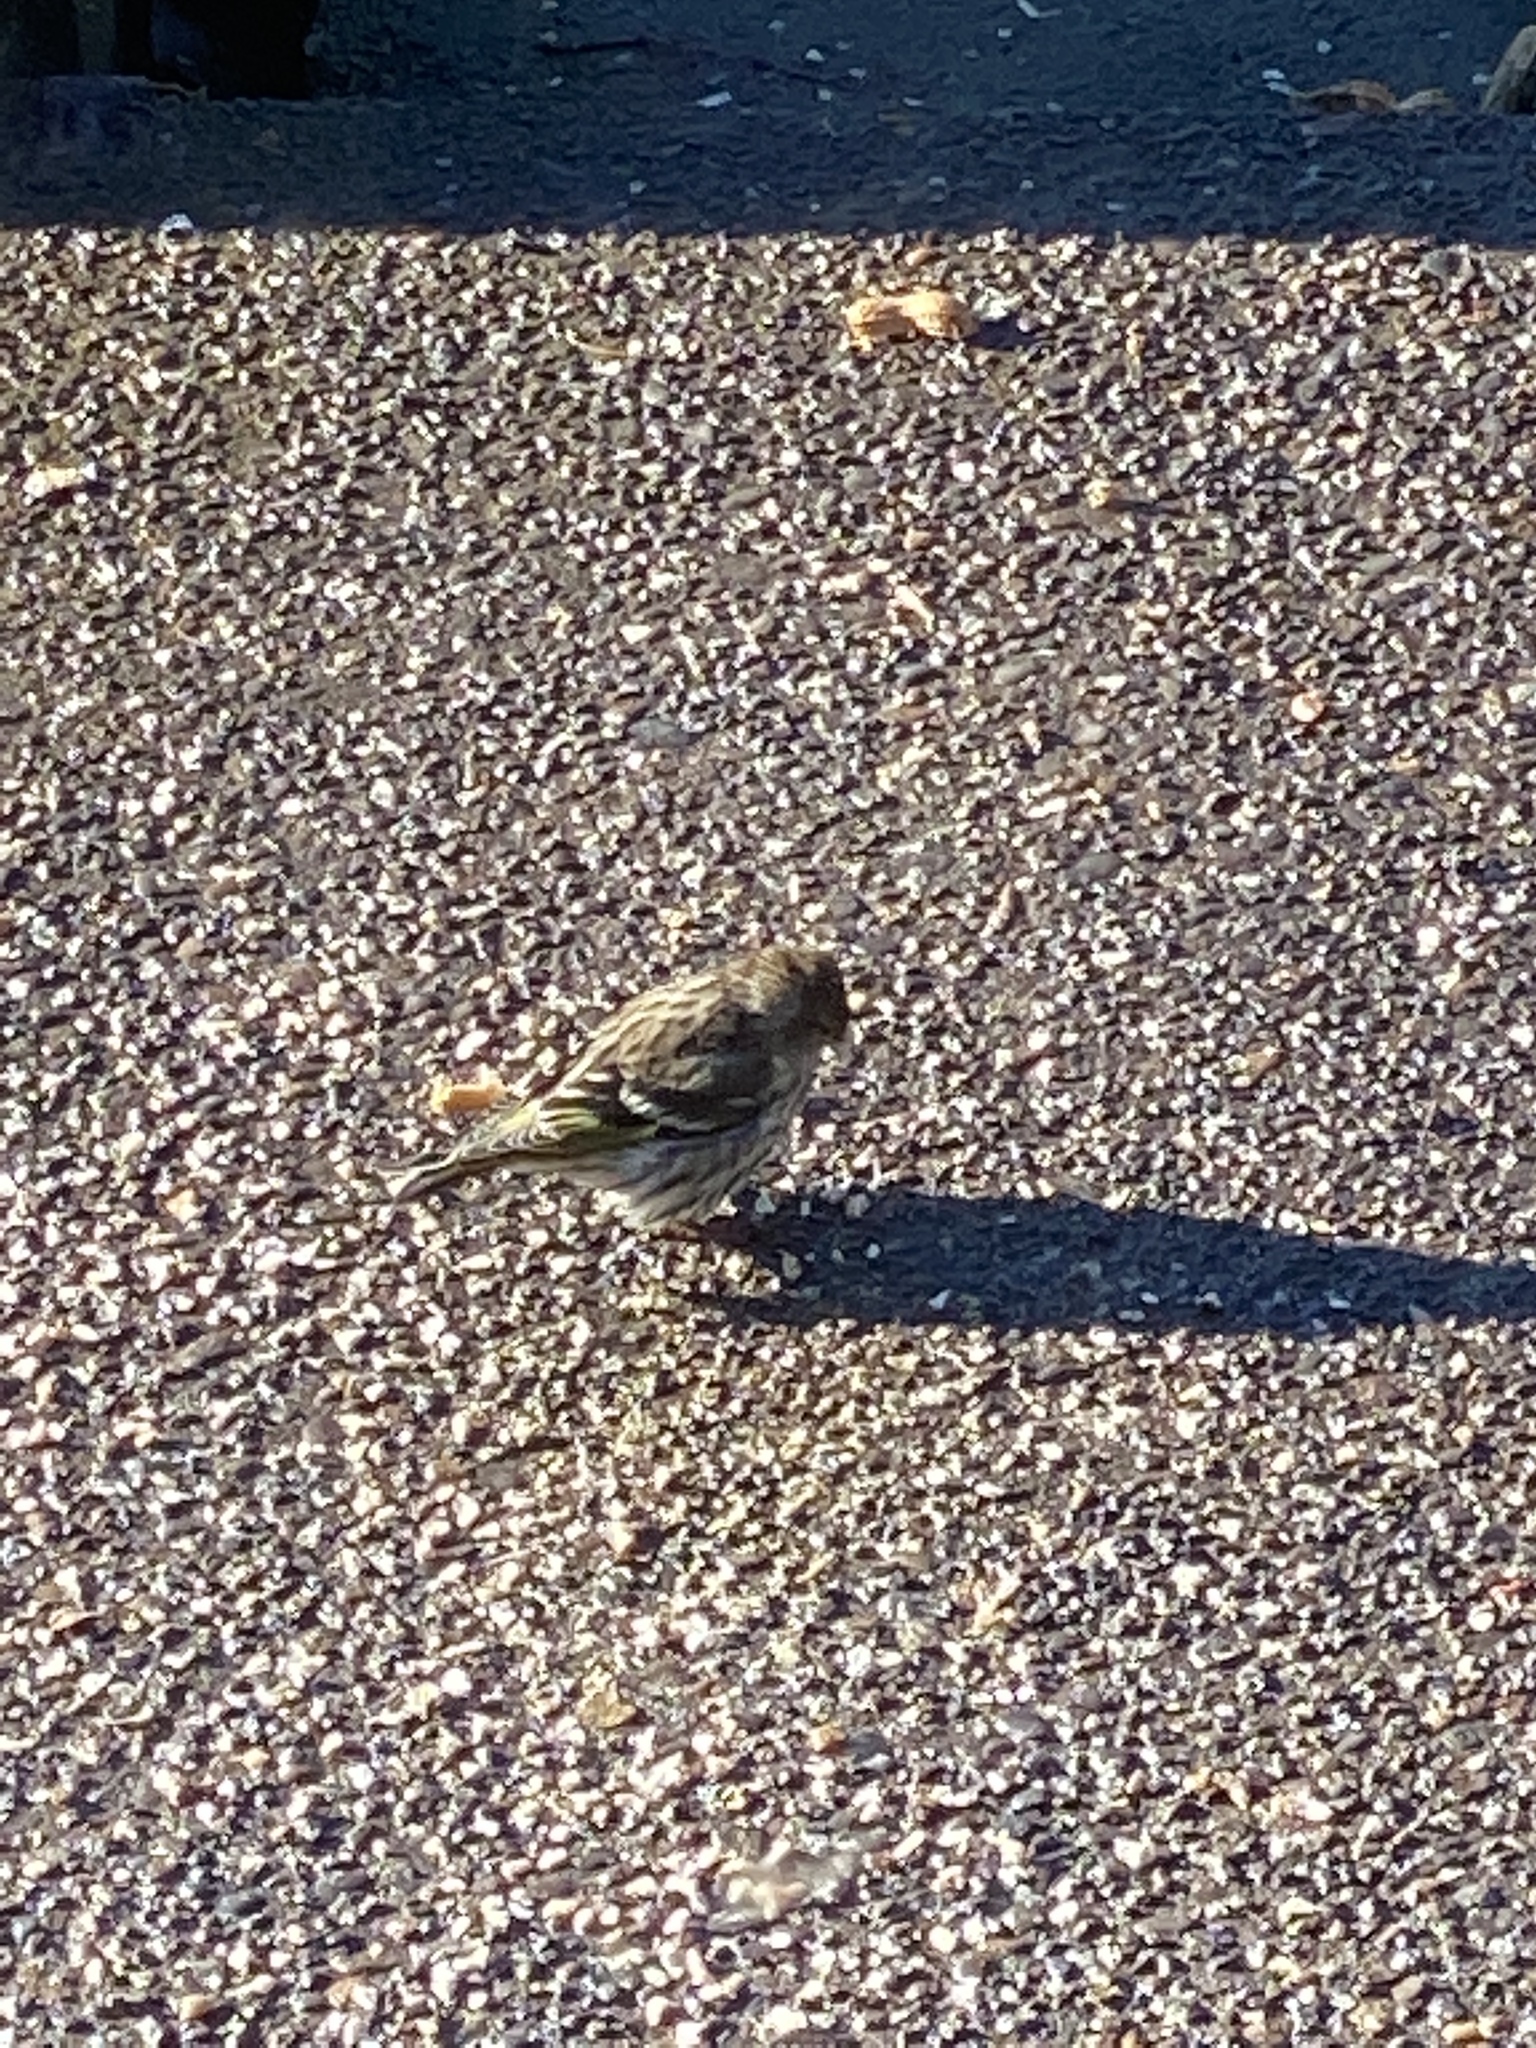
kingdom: Animalia
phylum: Chordata
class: Aves
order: Passeriformes
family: Fringillidae
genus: Spinus
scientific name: Spinus pinus
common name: Pine siskin
